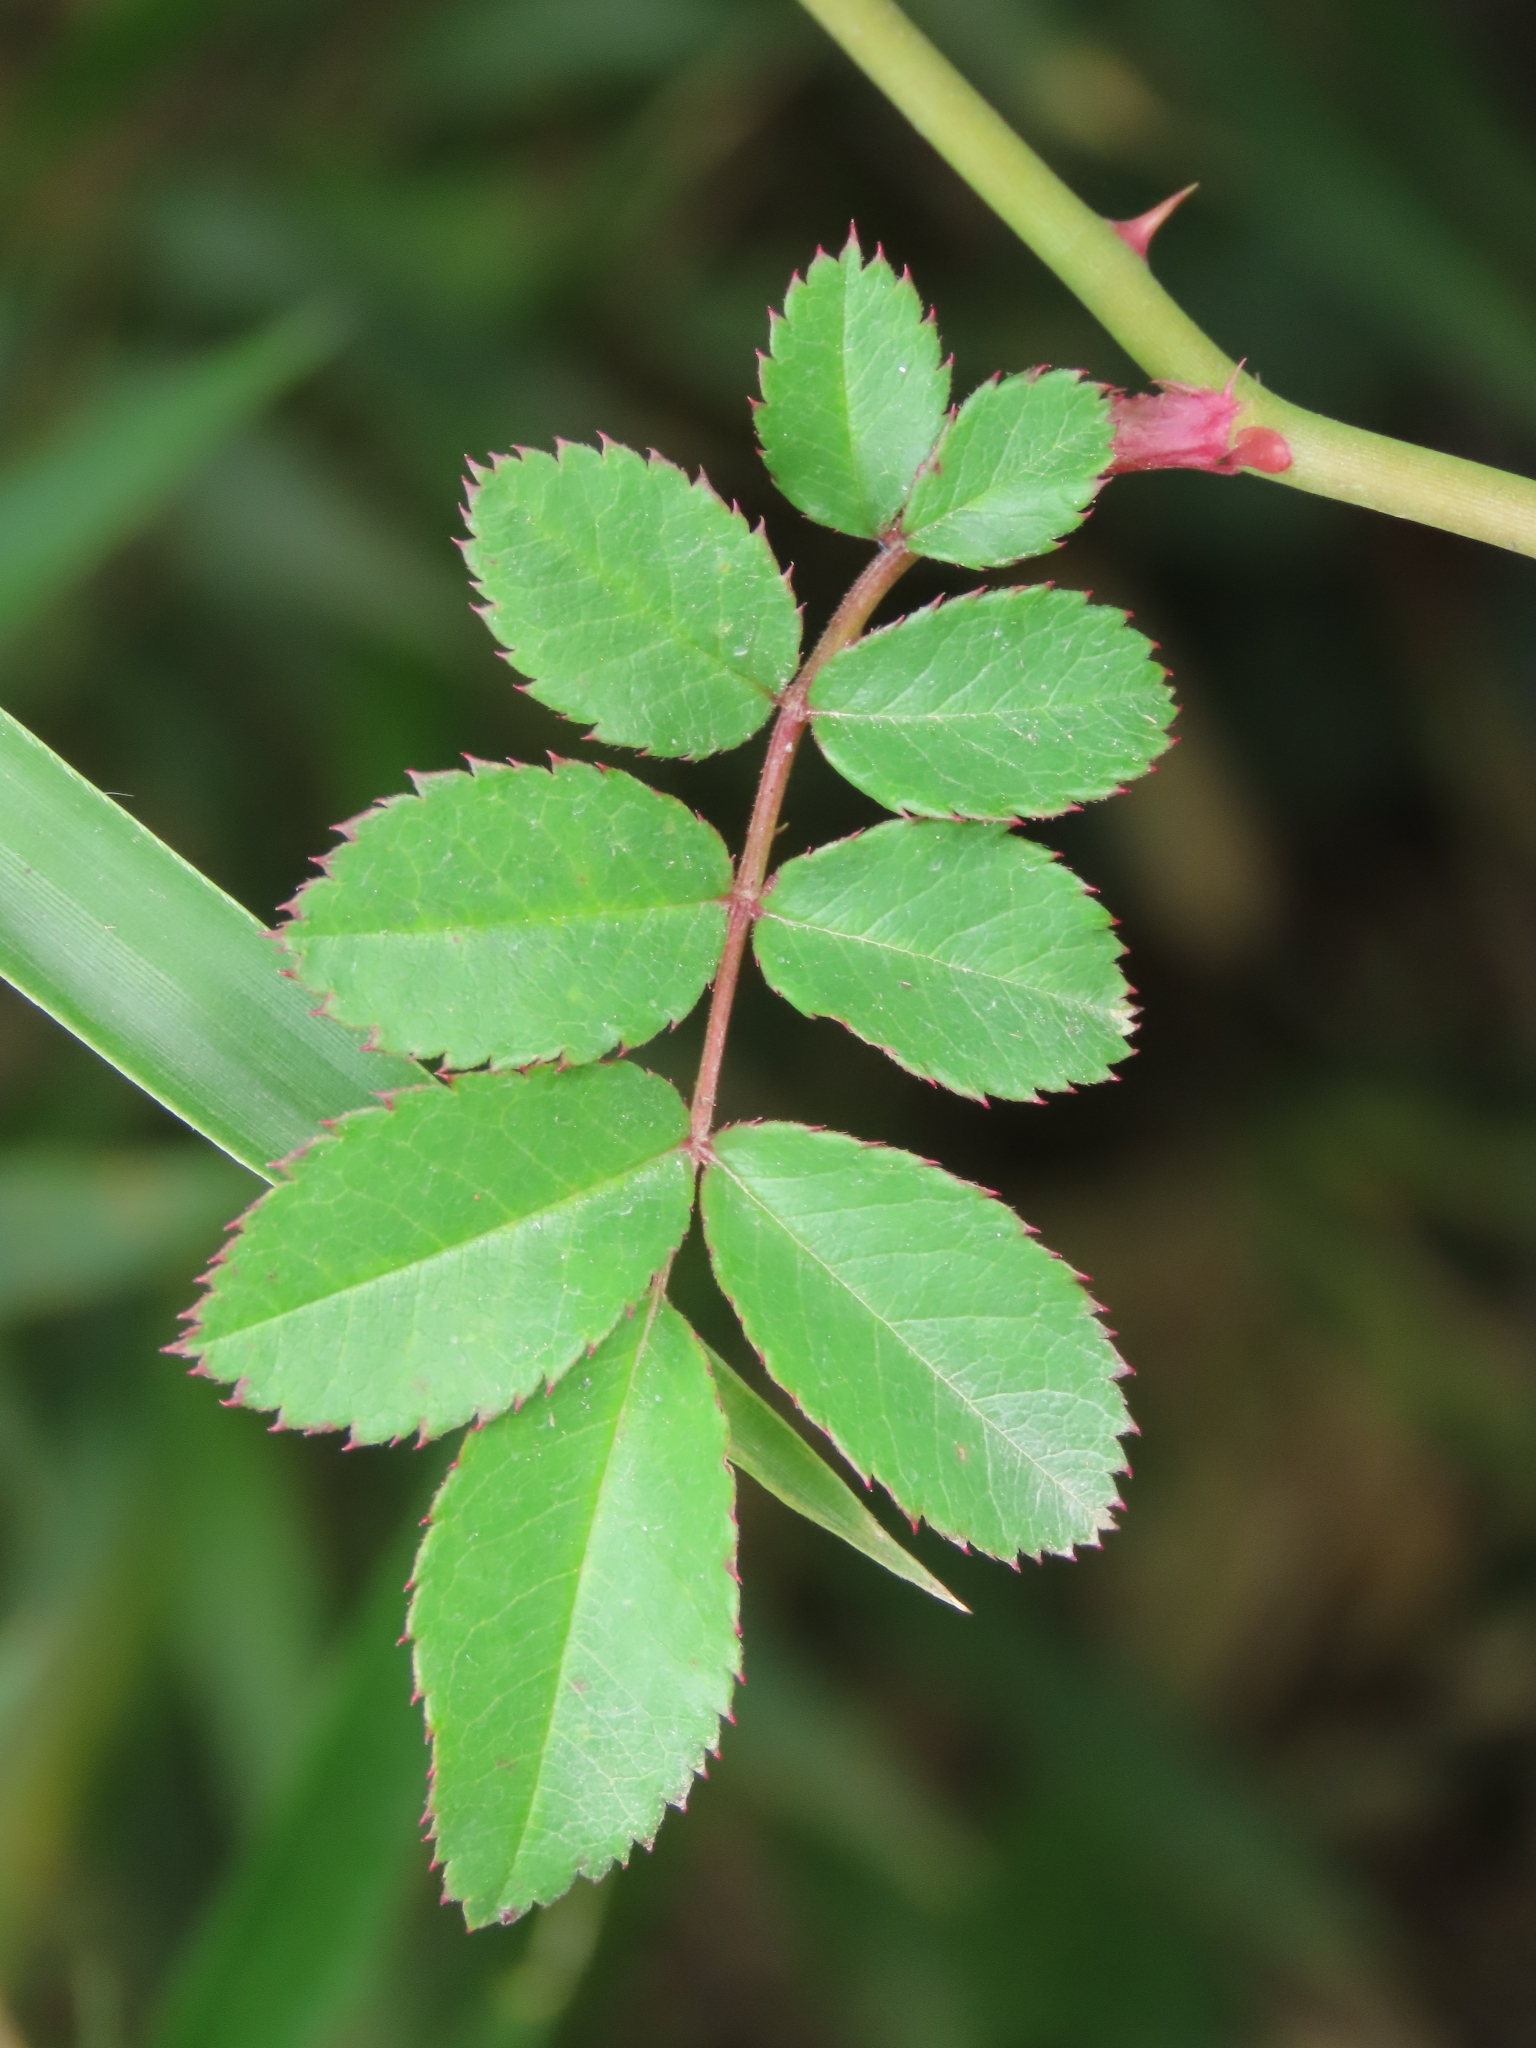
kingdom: Plantae
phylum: Tracheophyta
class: Magnoliopsida
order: Rosales
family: Rosaceae
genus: Rosa
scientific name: Rosa transmorrisonensis
